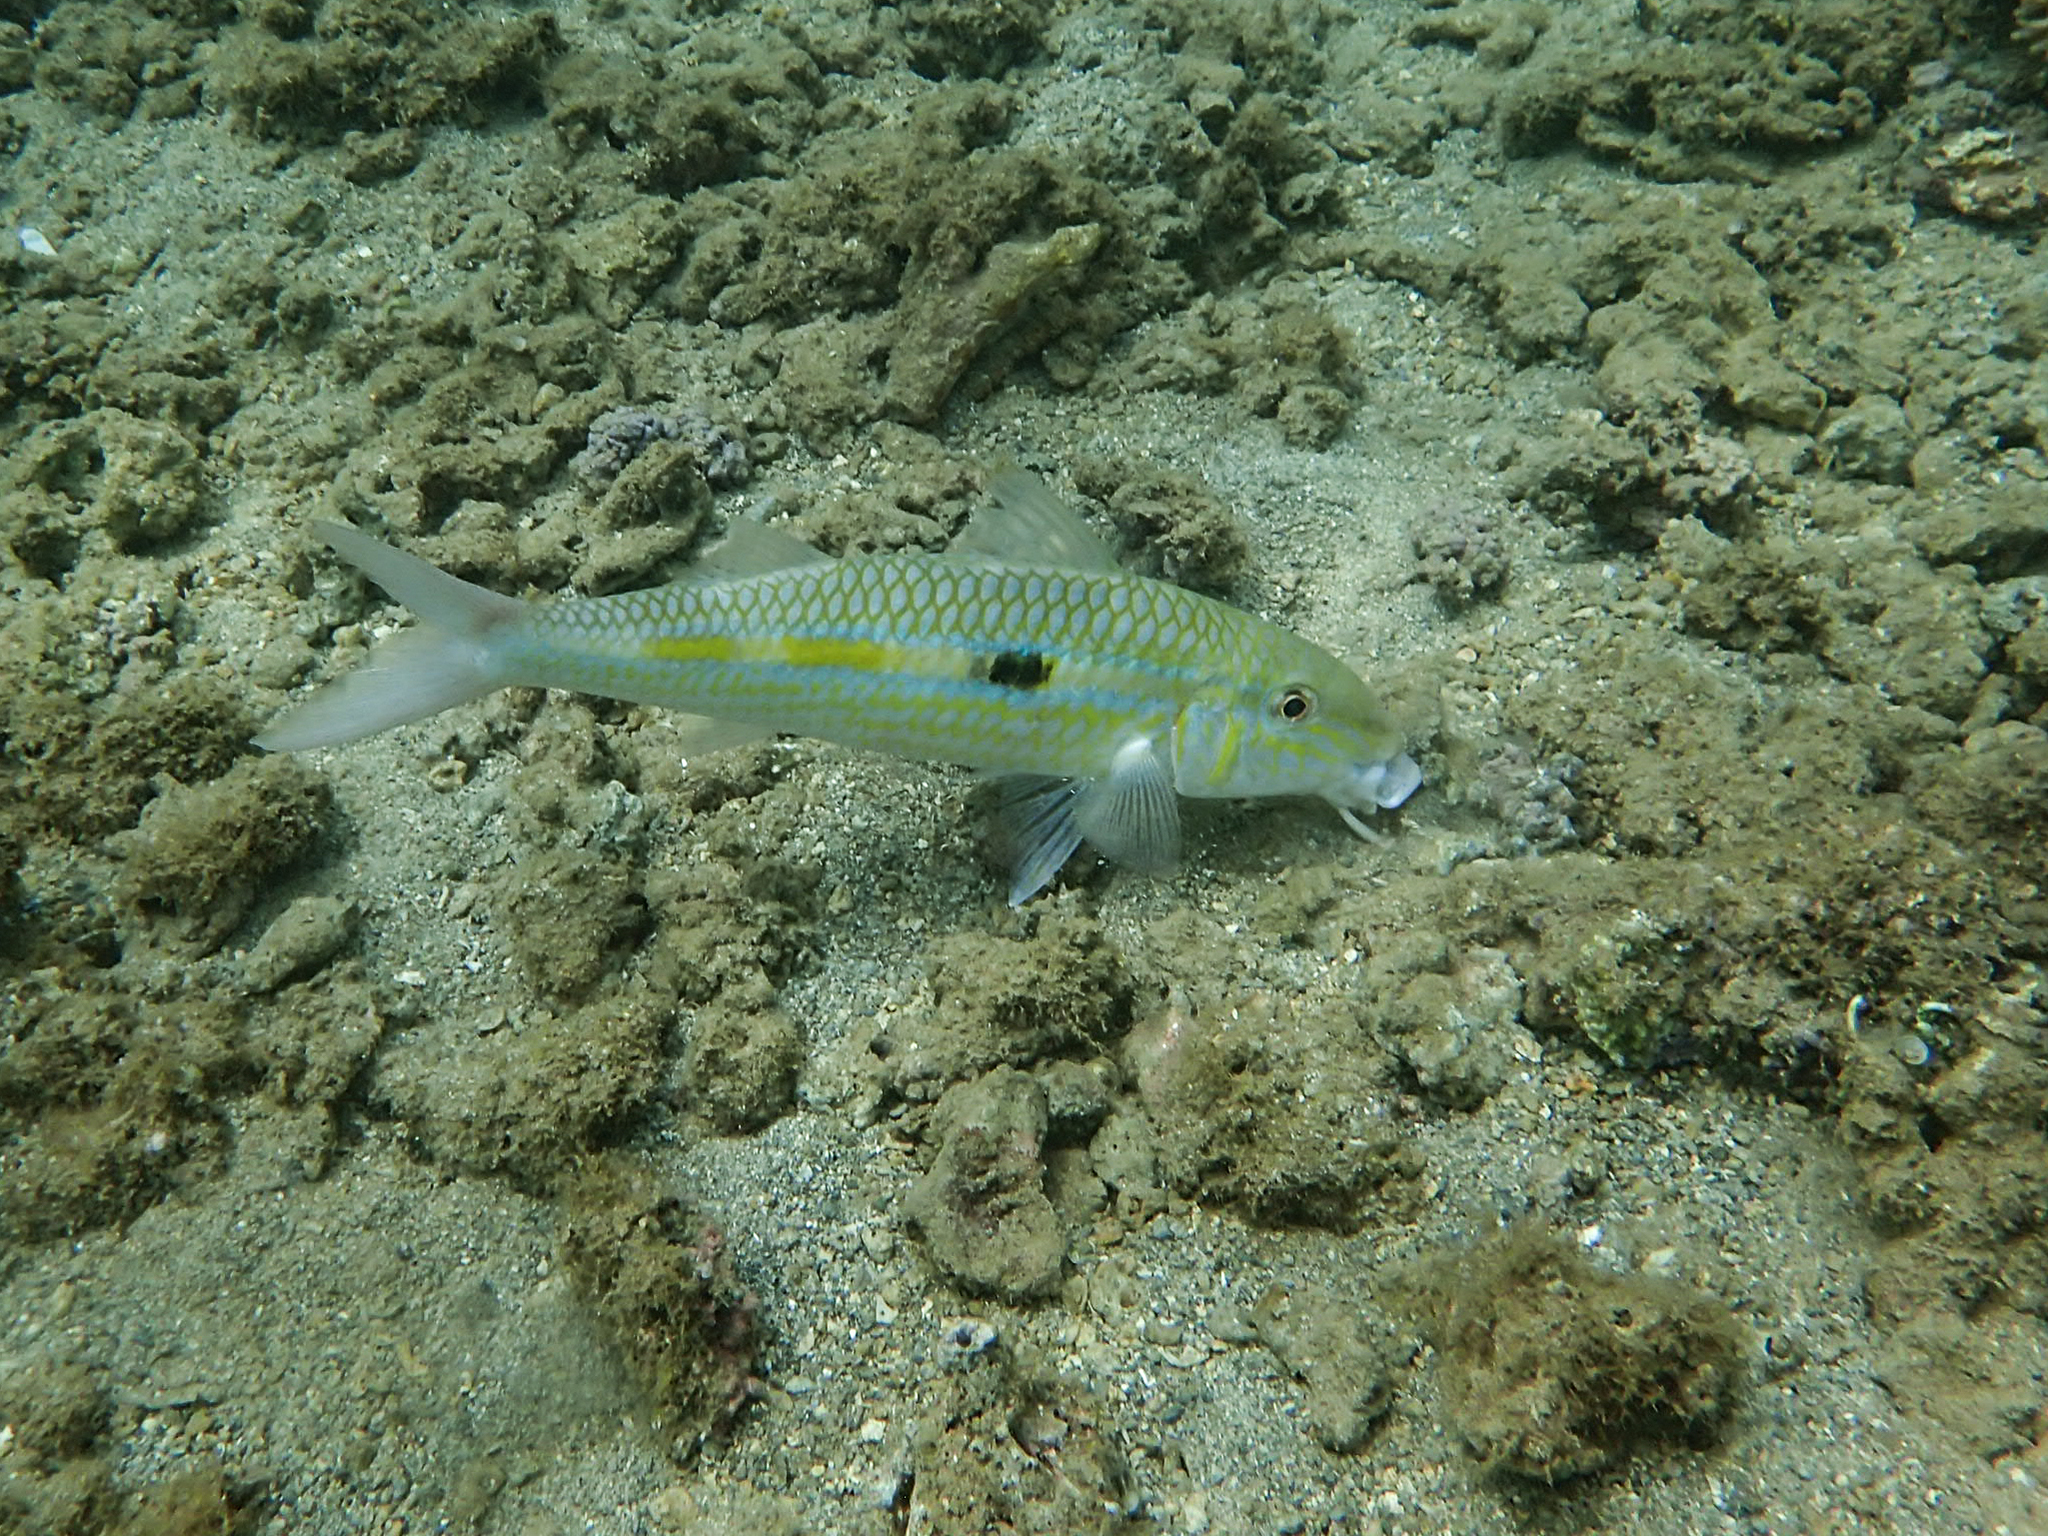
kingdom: Animalia
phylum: Chordata
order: Perciformes
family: Mullidae
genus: Mulloidichthys
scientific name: Mulloidichthys flavolineatus
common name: Yellowstripe goatfish
